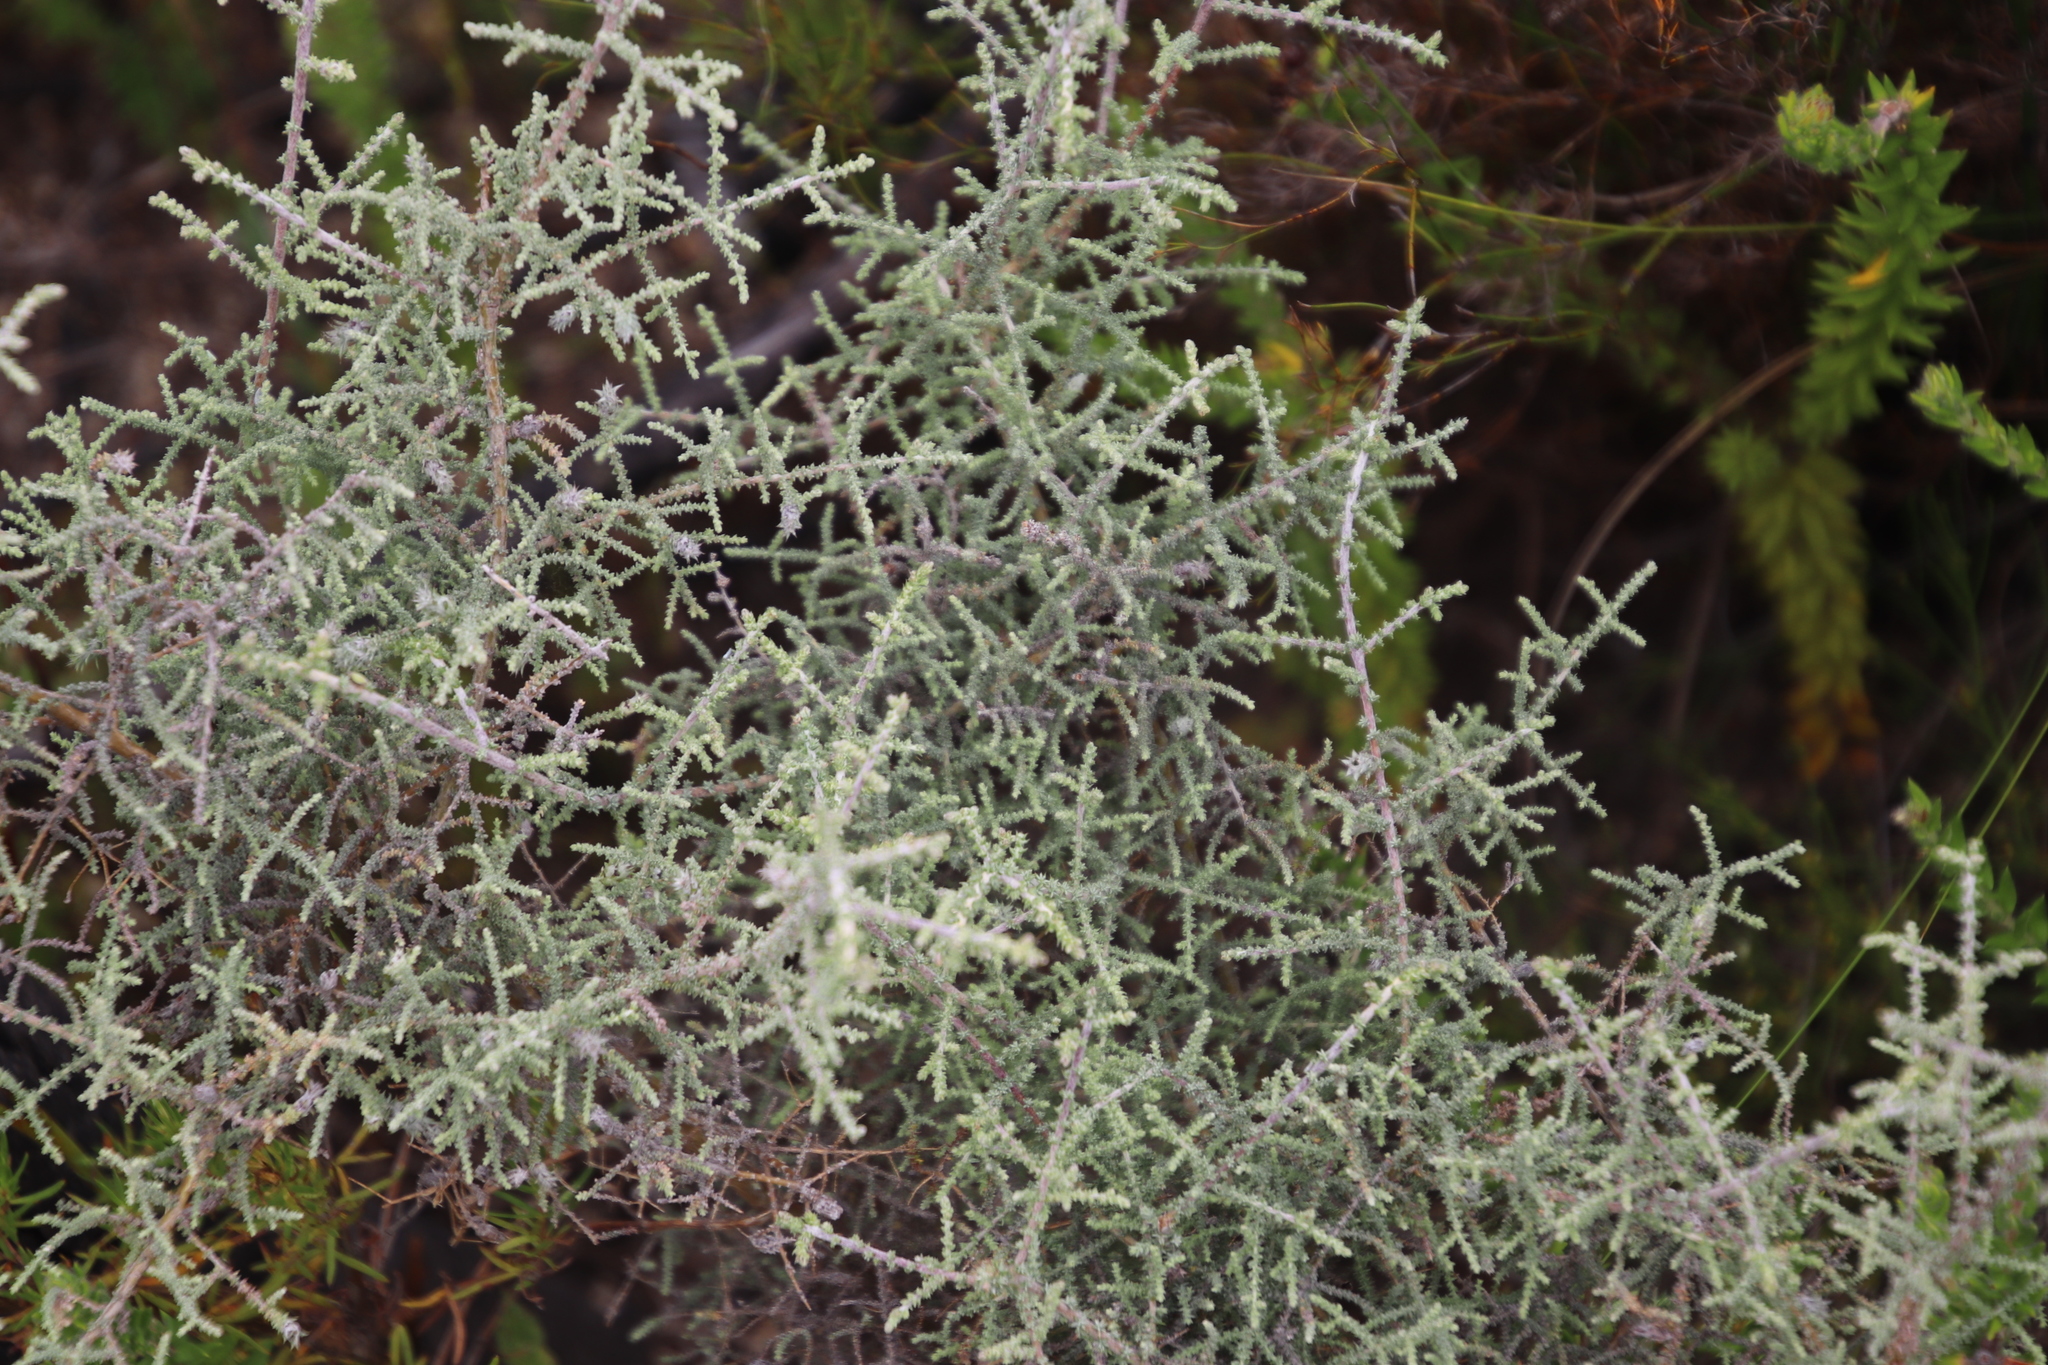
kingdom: Plantae
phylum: Tracheophyta
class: Magnoliopsida
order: Asterales
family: Asteraceae
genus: Seriphium
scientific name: Seriphium plumosum
